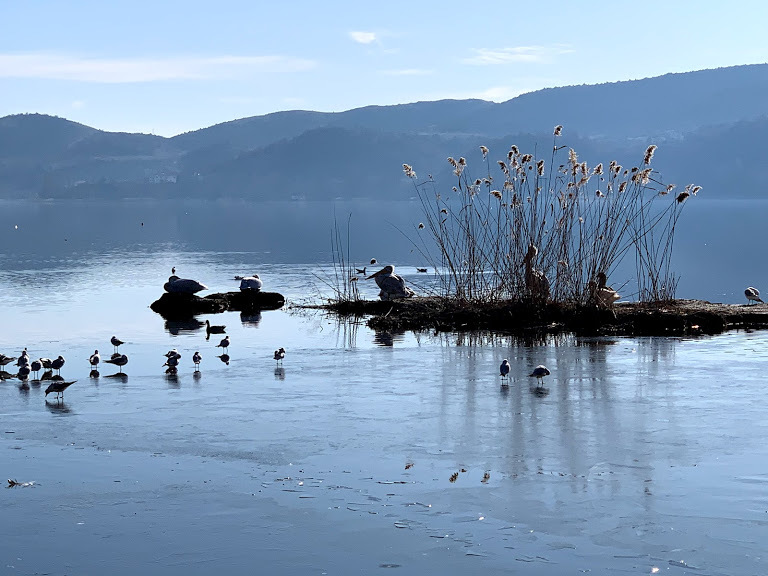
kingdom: Animalia
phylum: Chordata
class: Aves
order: Pelecaniformes
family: Pelecanidae
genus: Pelecanus
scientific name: Pelecanus crispus
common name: Dalmatian pelican
